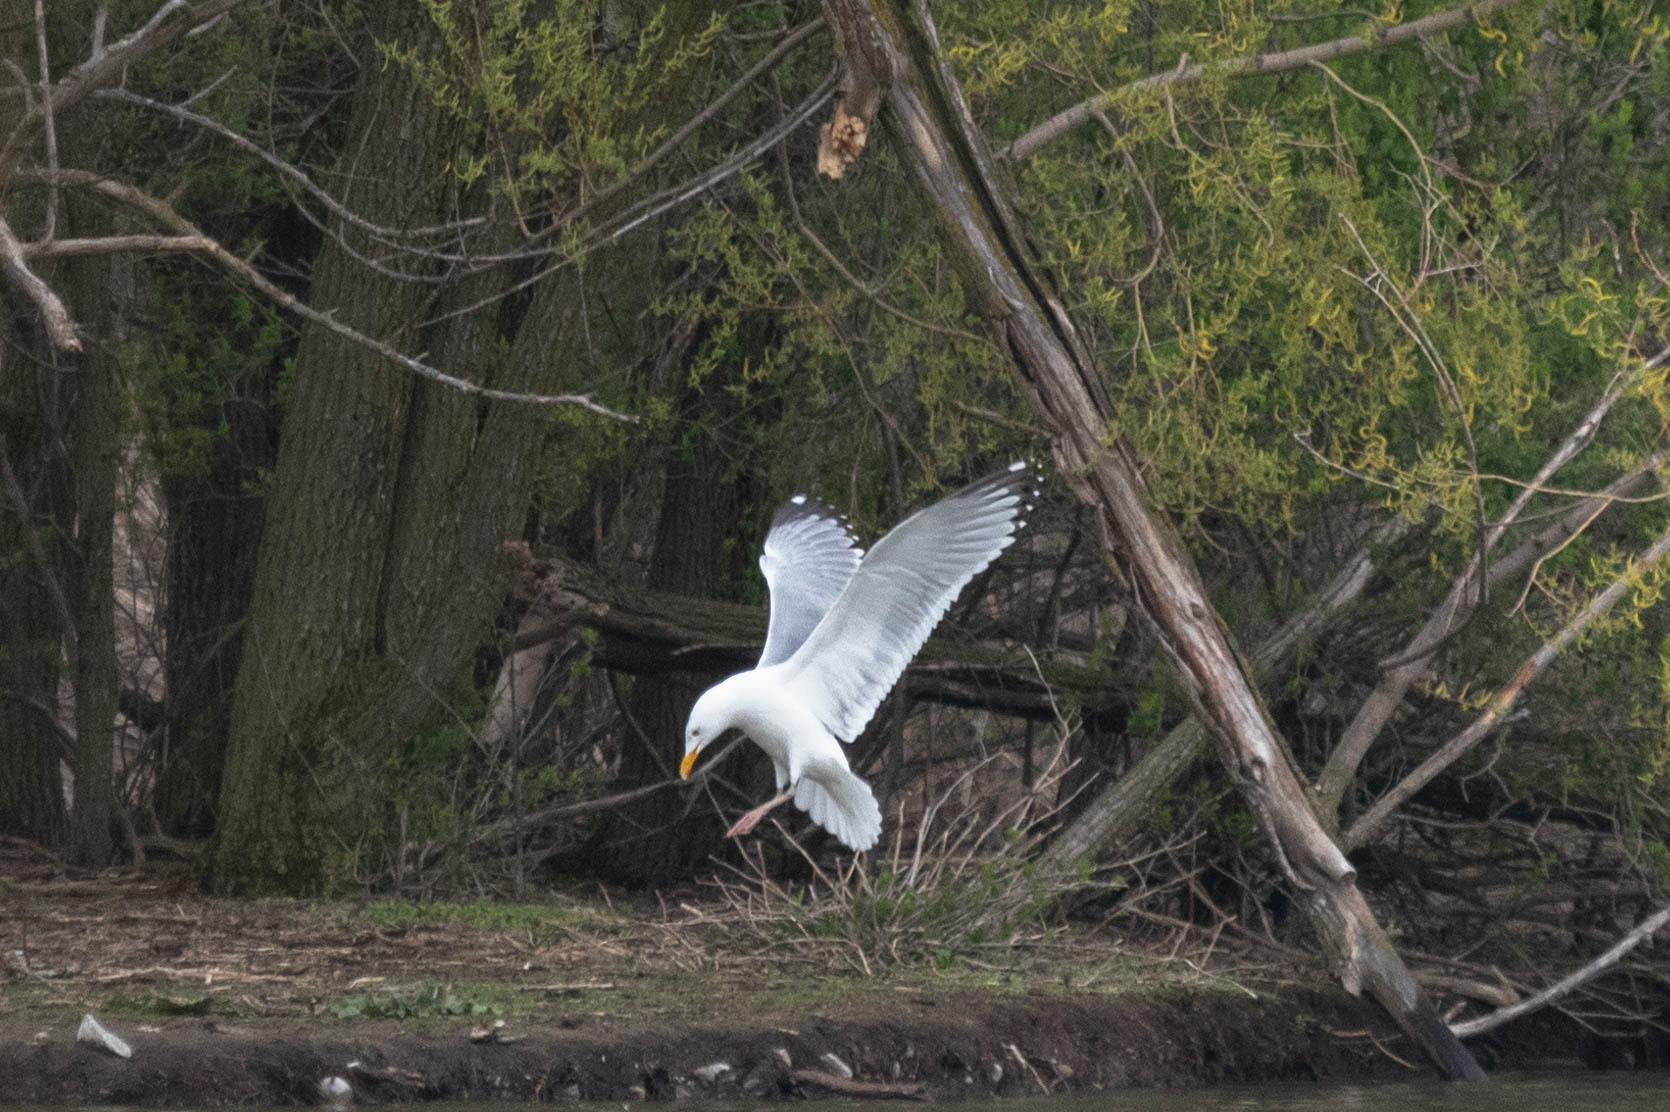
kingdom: Animalia
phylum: Chordata
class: Aves
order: Charadriiformes
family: Laridae
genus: Larus
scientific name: Larus argentatus
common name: Herring gull
